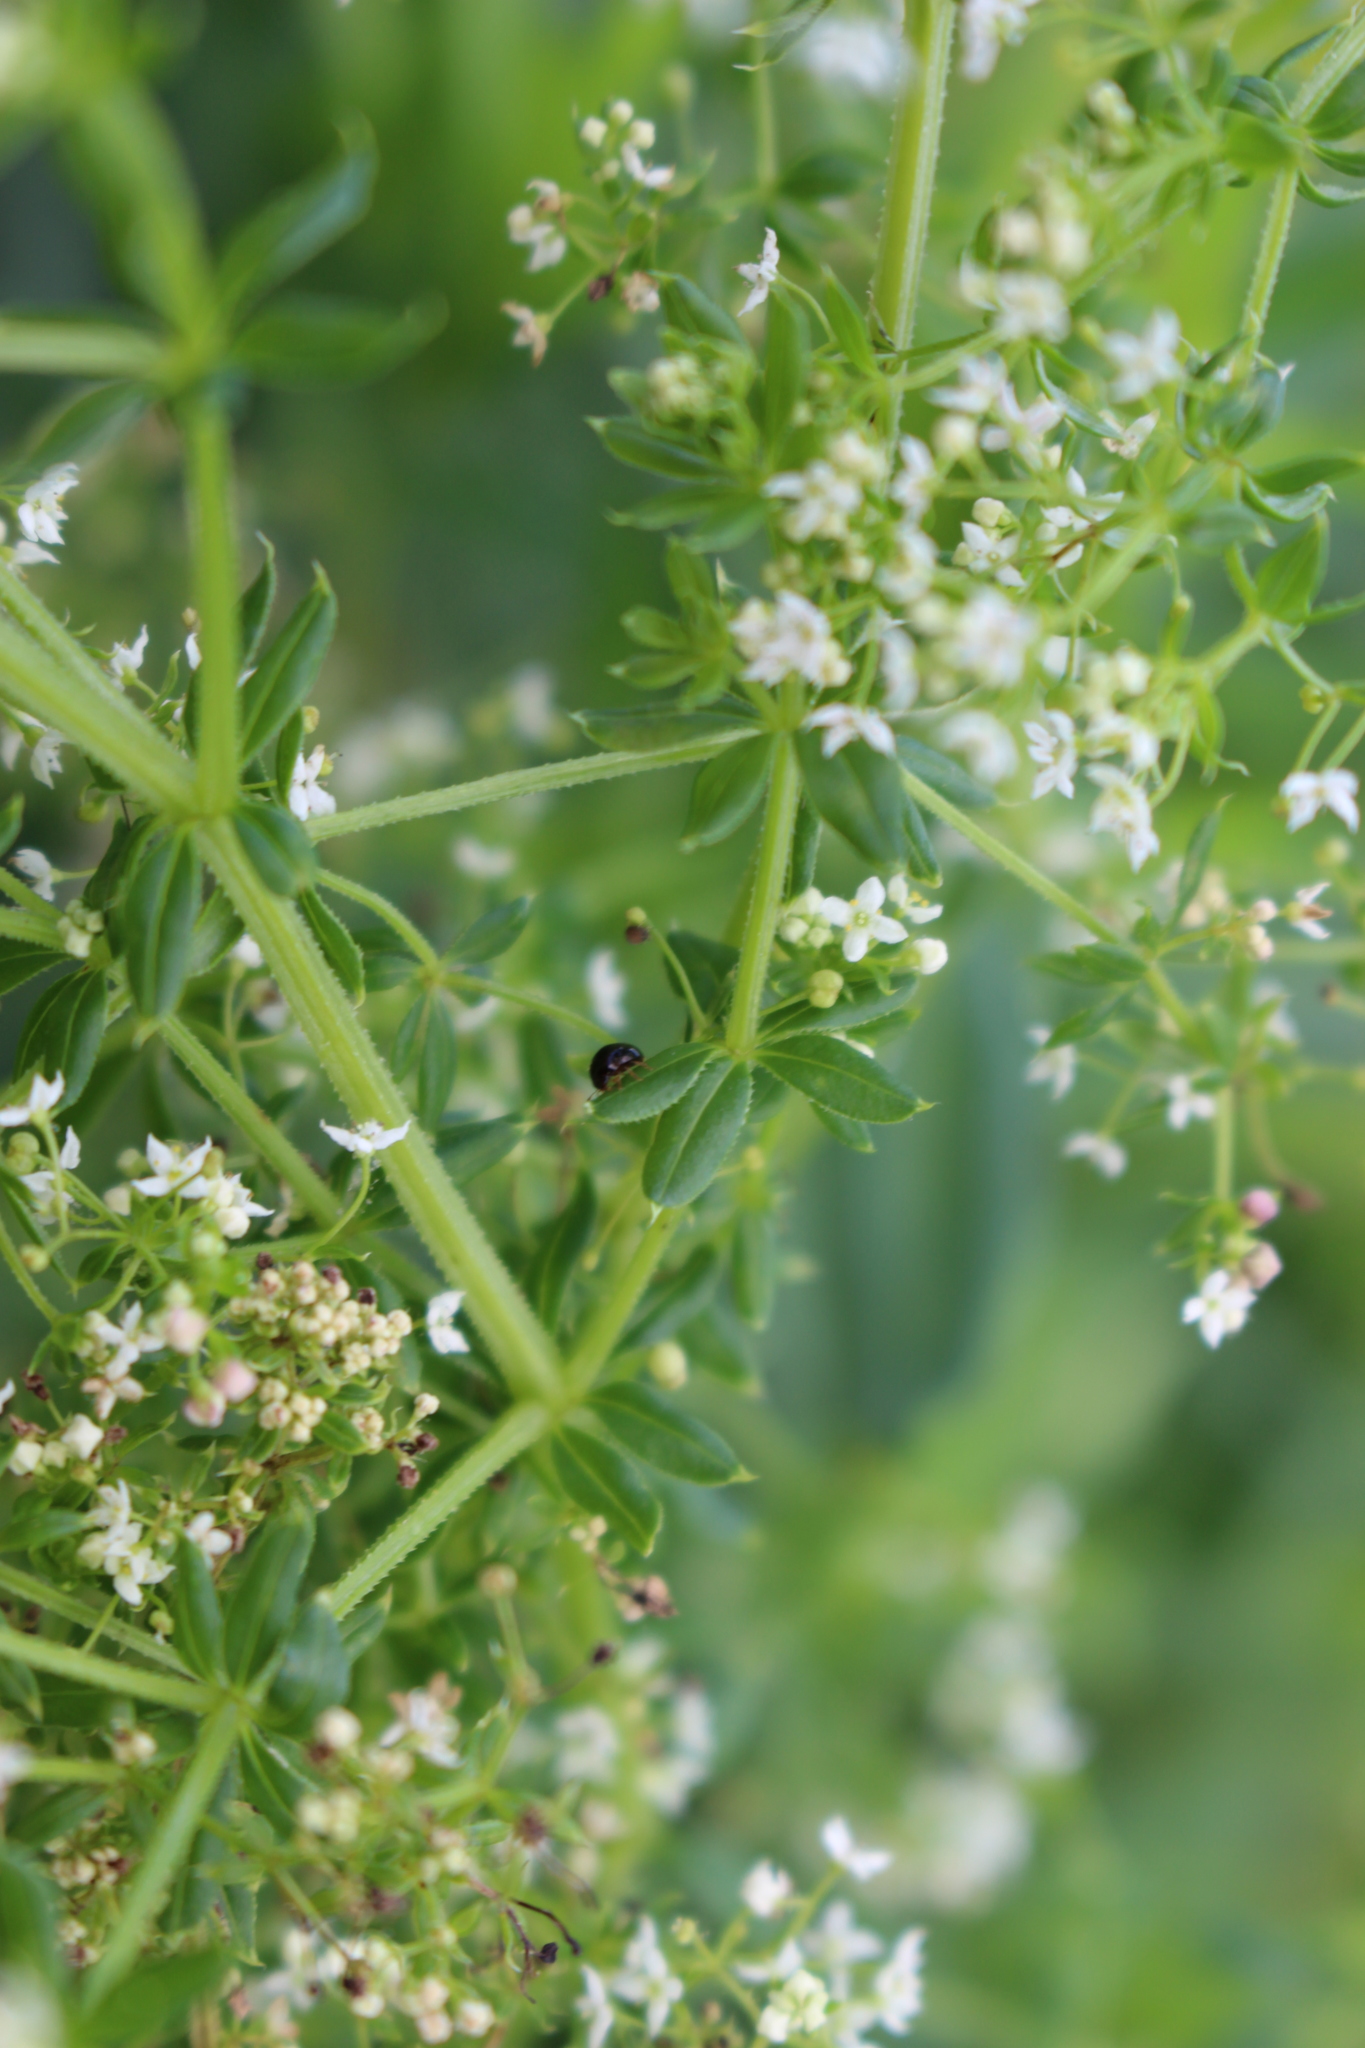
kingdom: Plantae
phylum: Tracheophyta
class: Magnoliopsida
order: Gentianales
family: Rubiaceae
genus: Galium
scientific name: Galium asprellum
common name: Rough bedstraw
